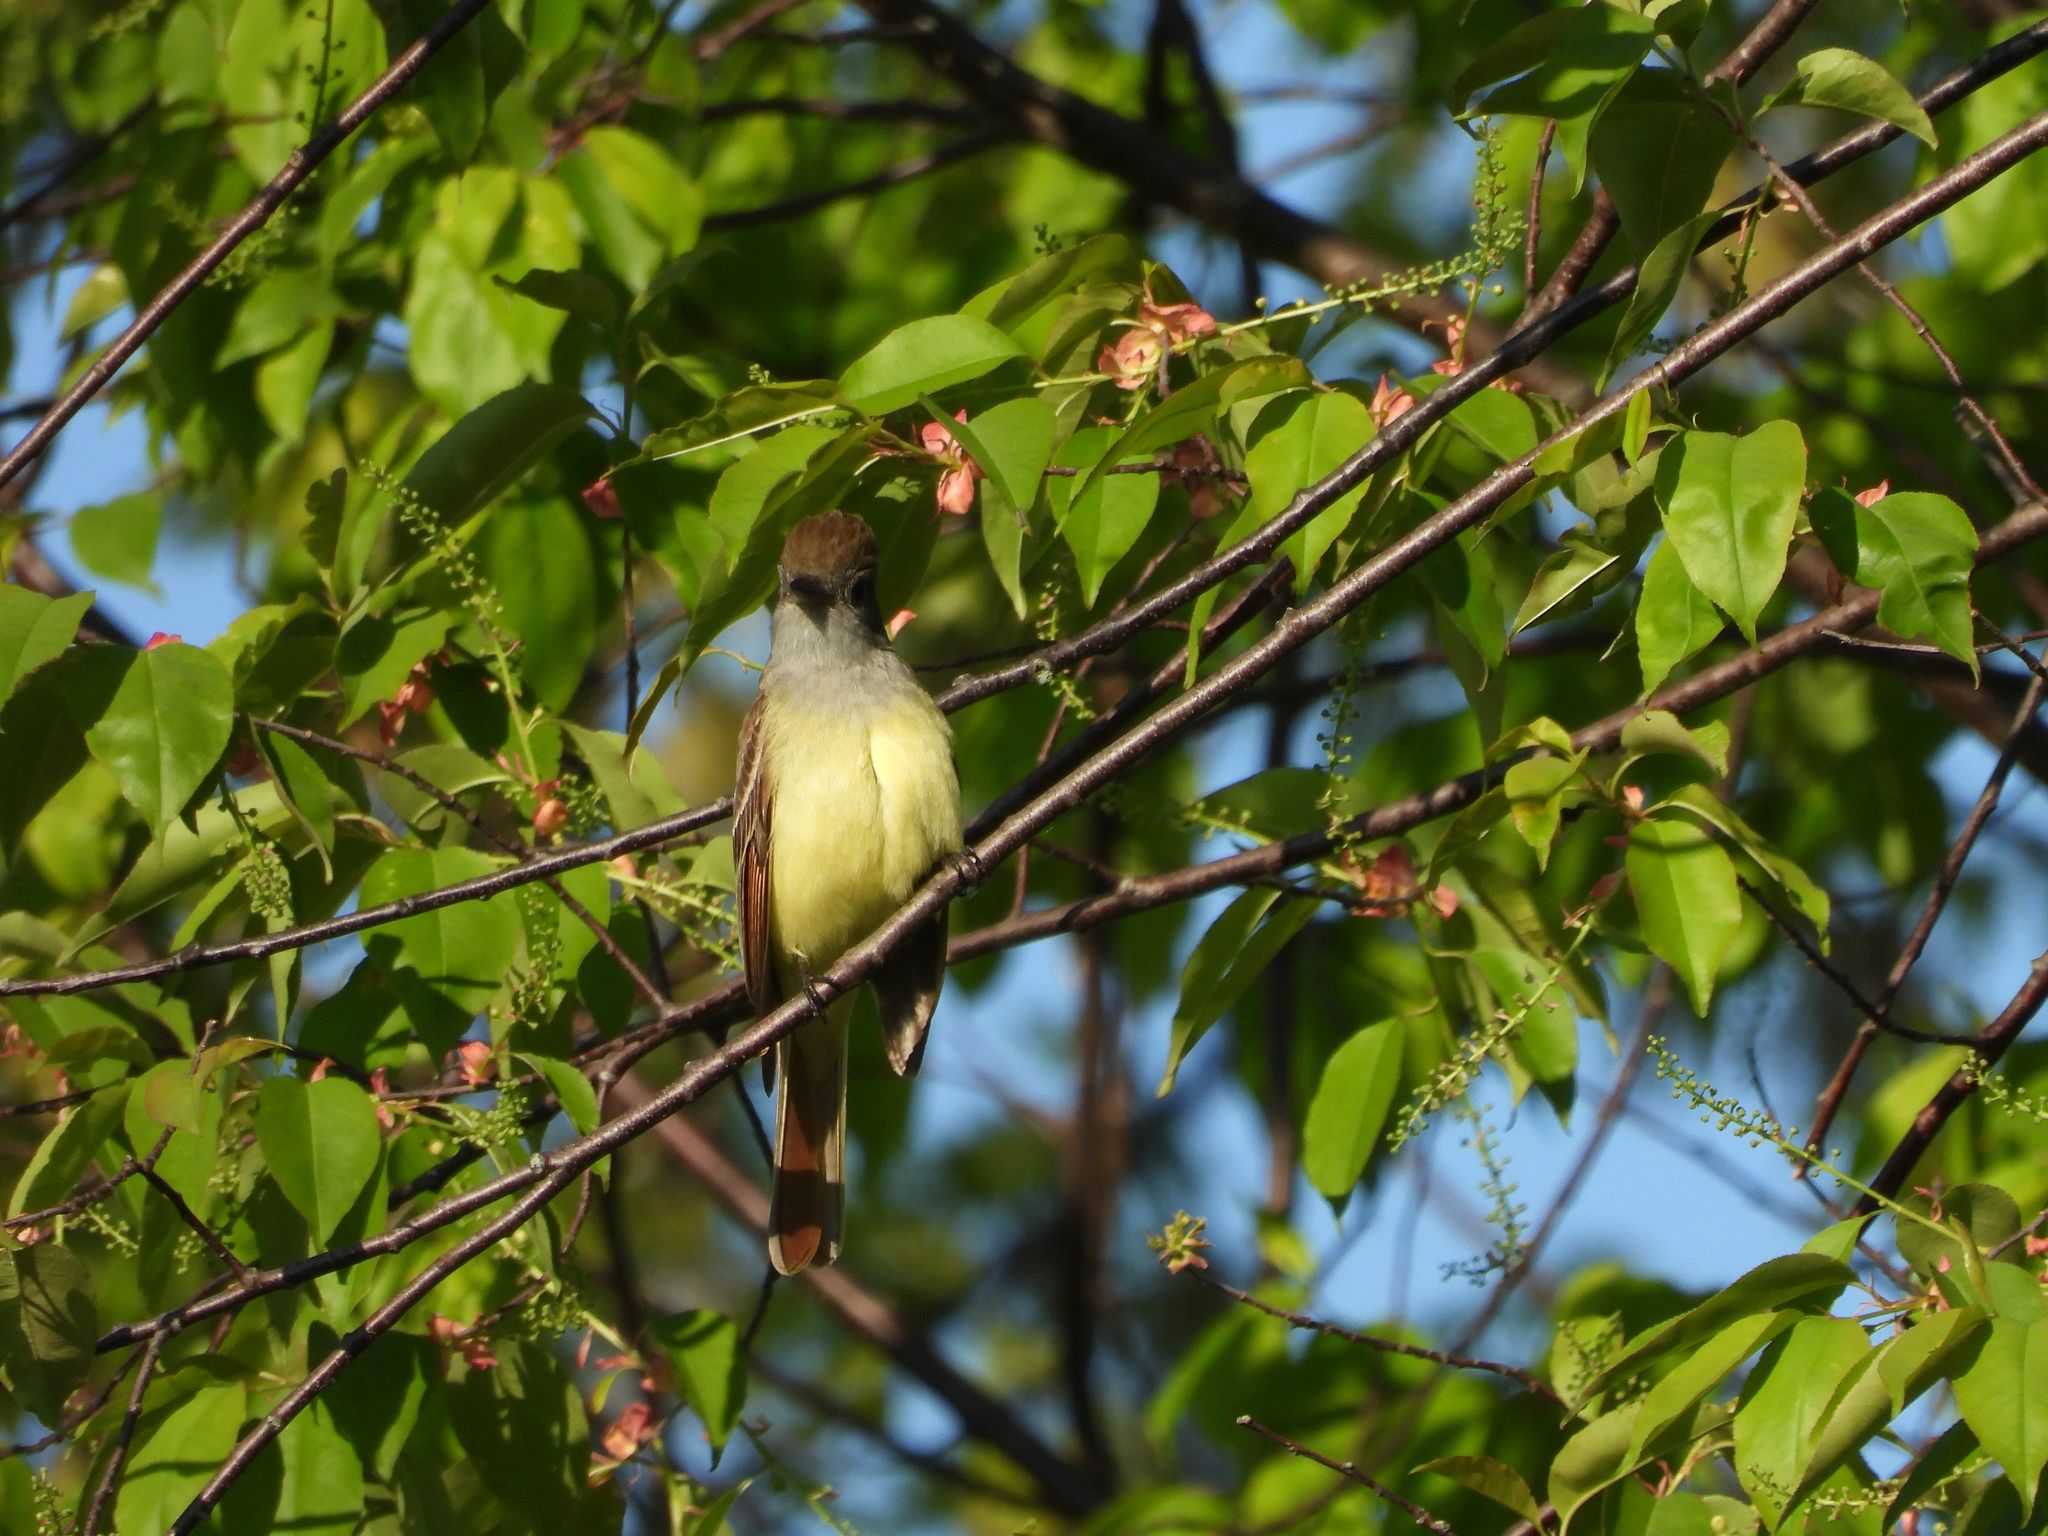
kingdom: Animalia
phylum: Chordata
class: Aves
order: Passeriformes
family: Tyrannidae
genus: Myiarchus
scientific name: Myiarchus crinitus
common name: Great crested flycatcher
